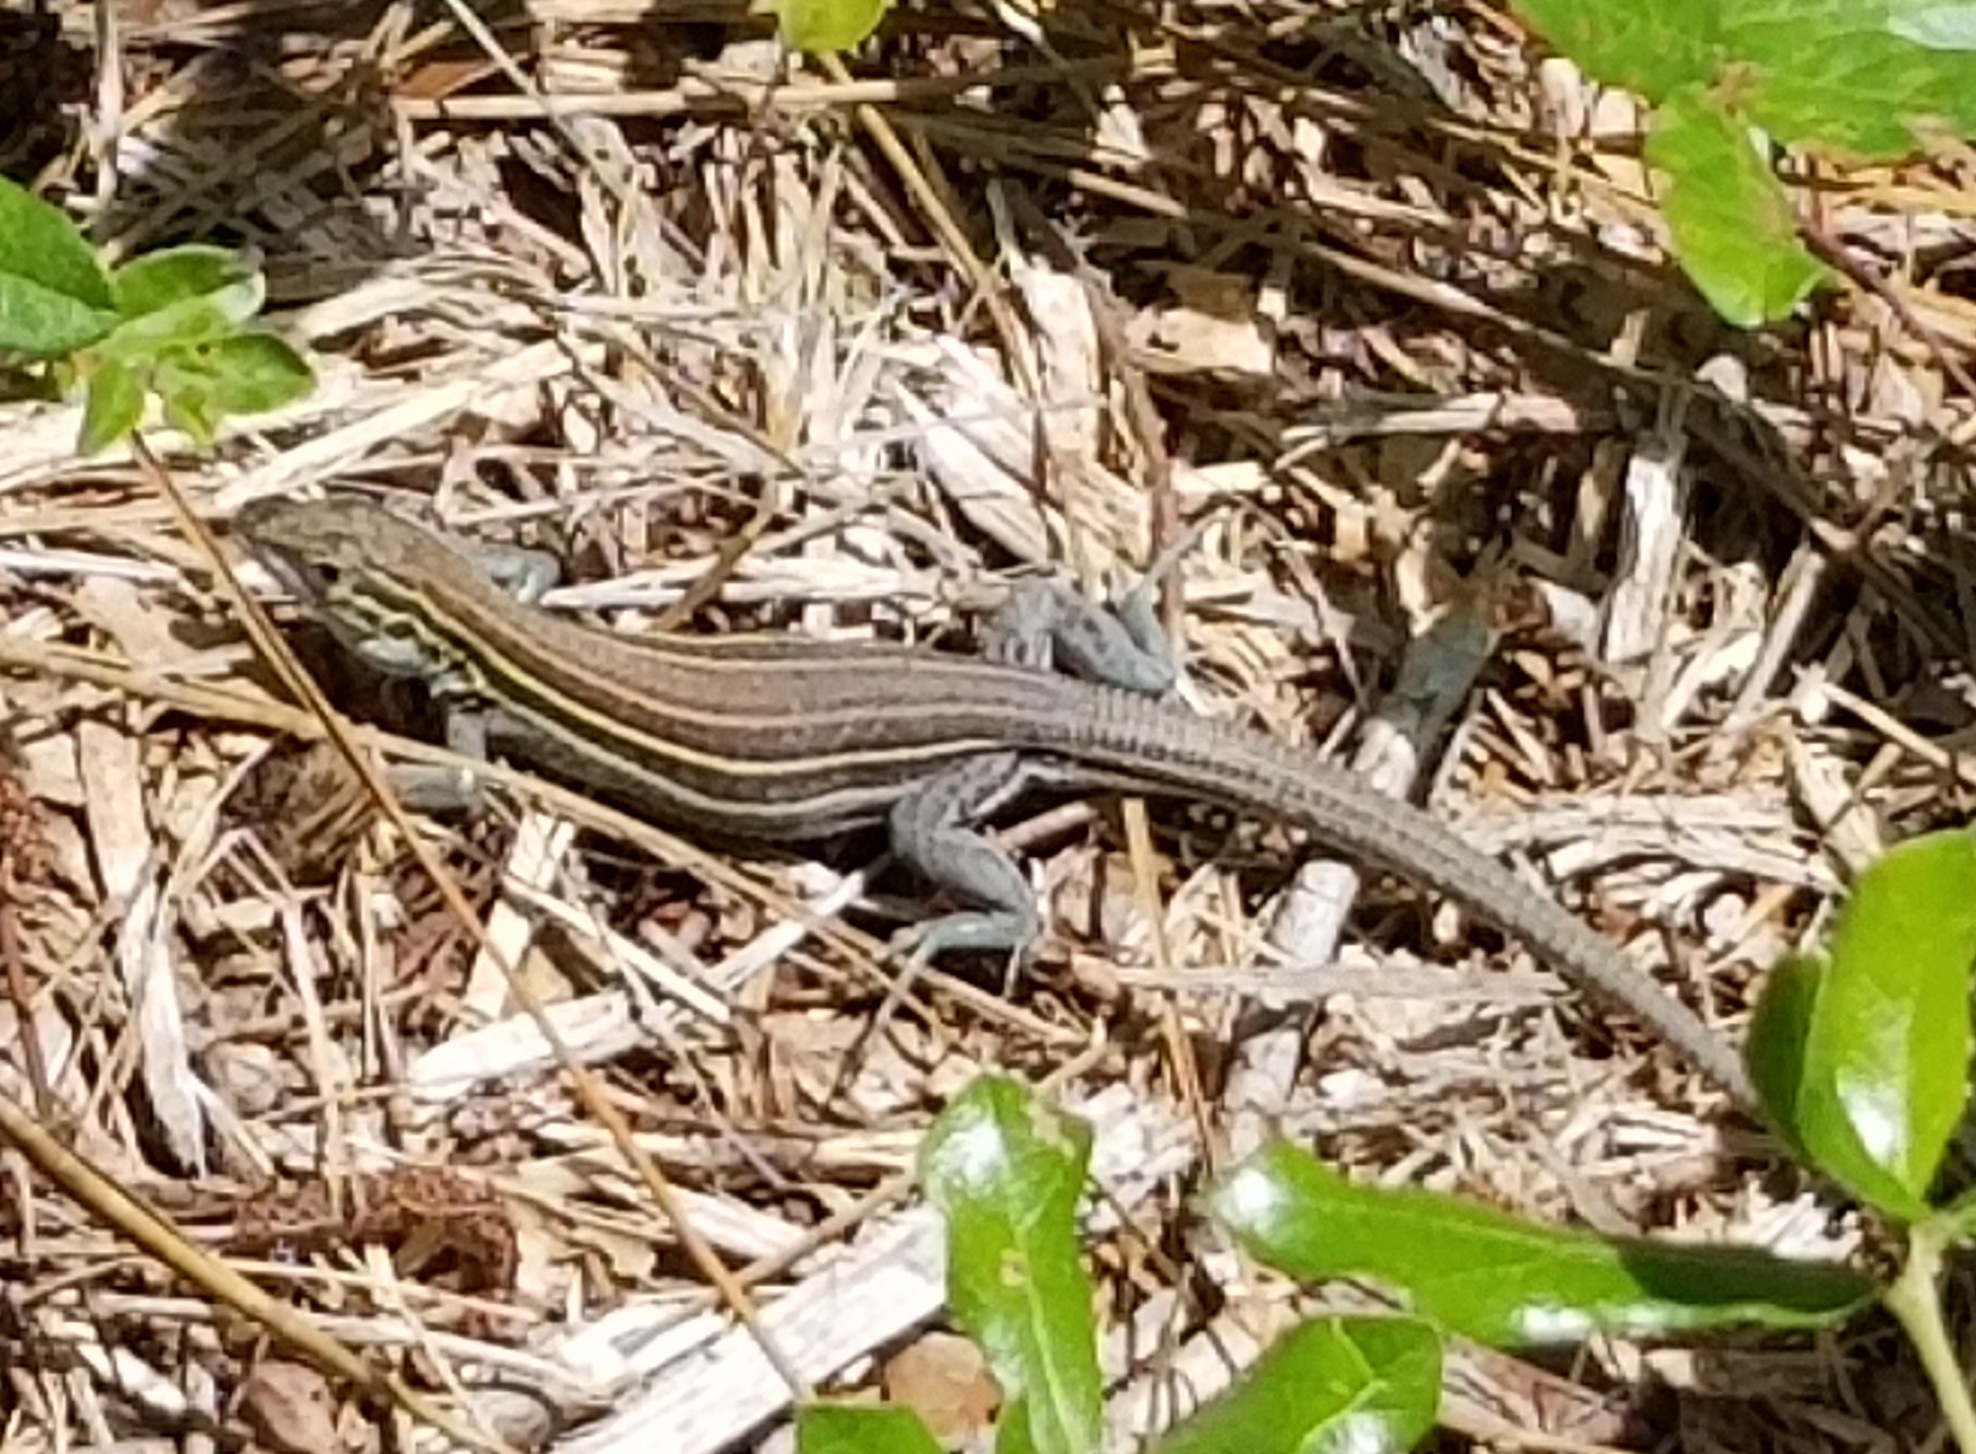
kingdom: Animalia
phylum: Chordata
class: Squamata
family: Teiidae
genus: Aspidoscelis
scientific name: Aspidoscelis sexlineatus
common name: Six-lined racerunner
